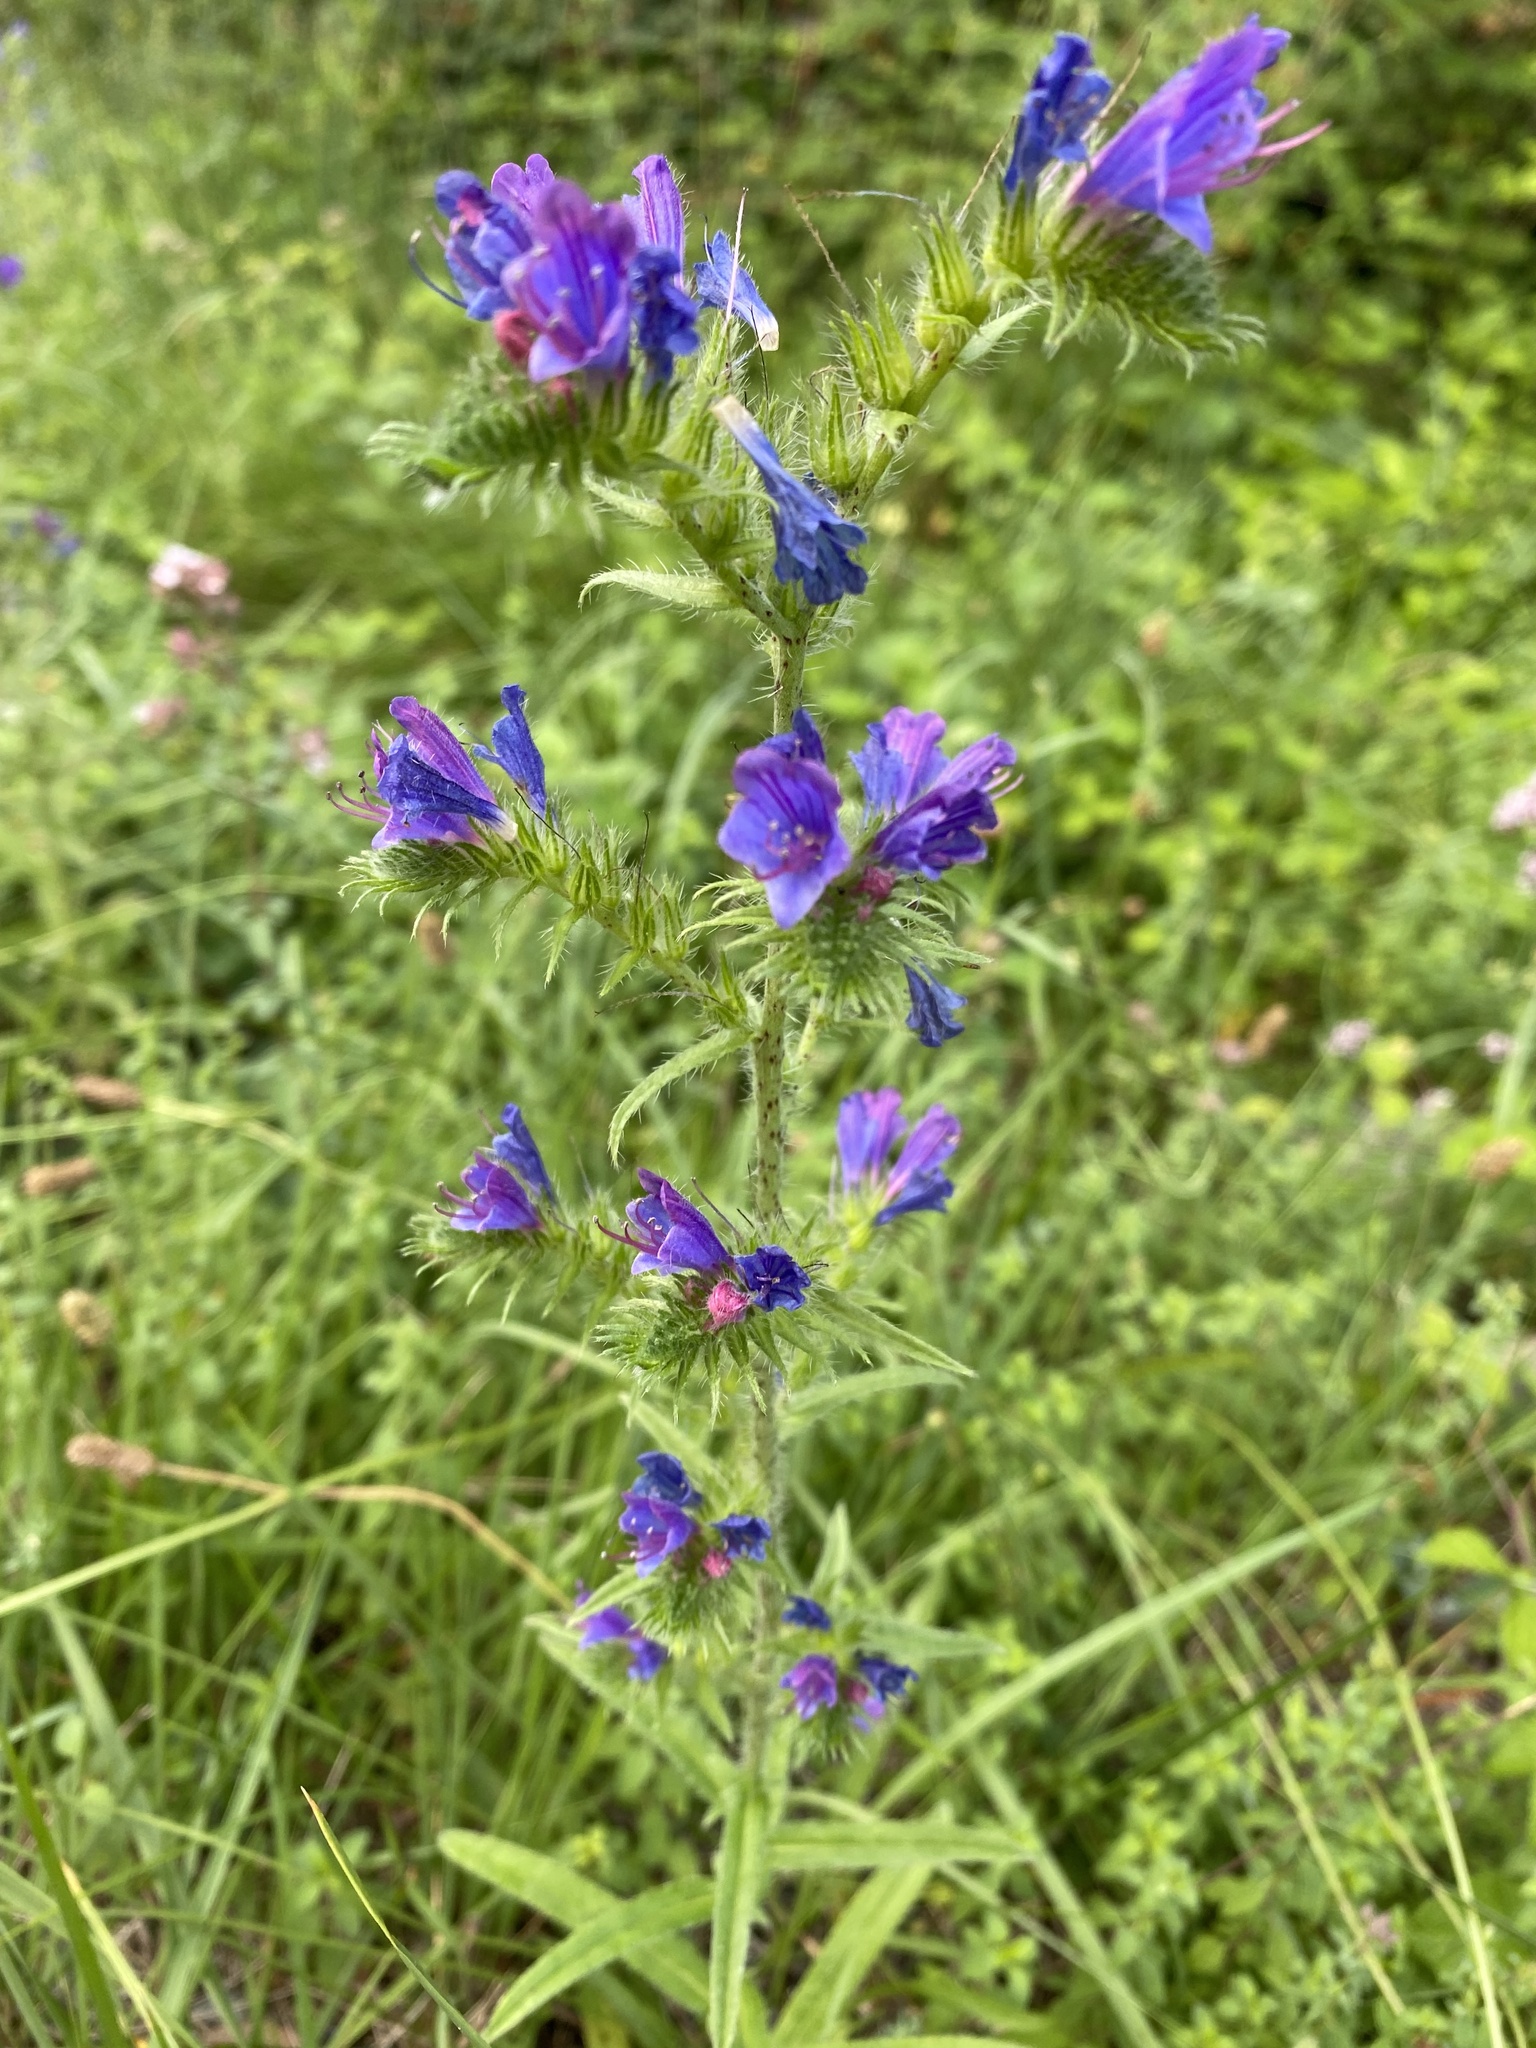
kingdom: Plantae
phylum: Tracheophyta
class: Magnoliopsida
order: Boraginales
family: Boraginaceae
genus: Echium
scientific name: Echium vulgare
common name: Common viper's bugloss
